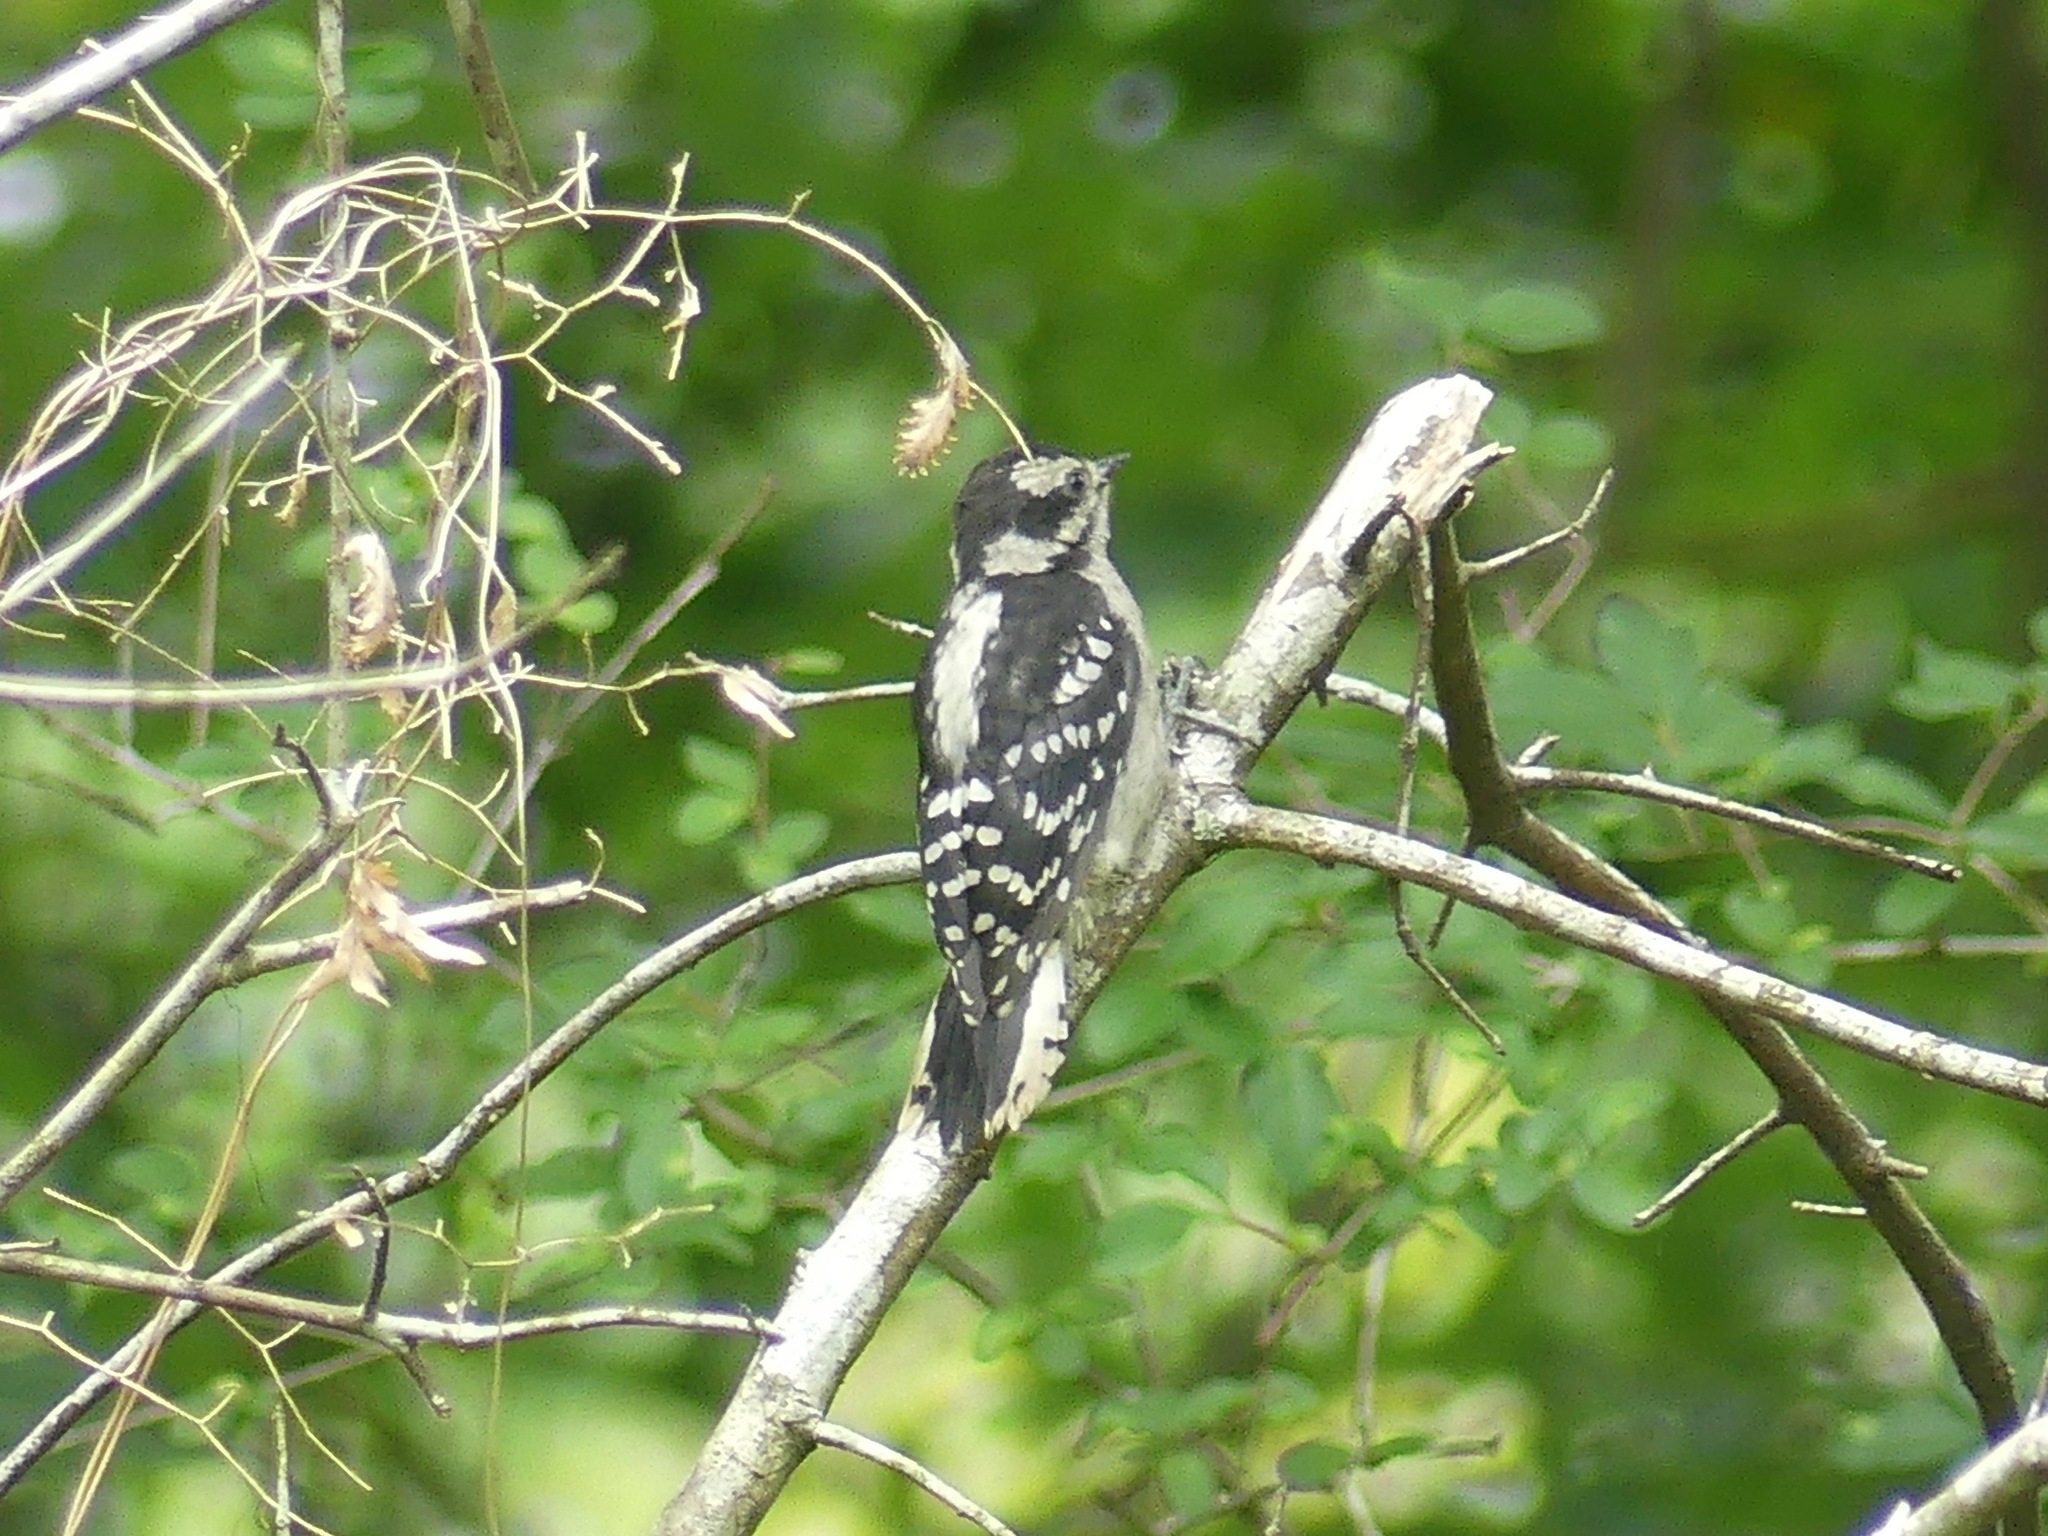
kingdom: Animalia
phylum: Chordata
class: Aves
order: Piciformes
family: Picidae
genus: Dryobates
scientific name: Dryobates pubescens
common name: Downy woodpecker
